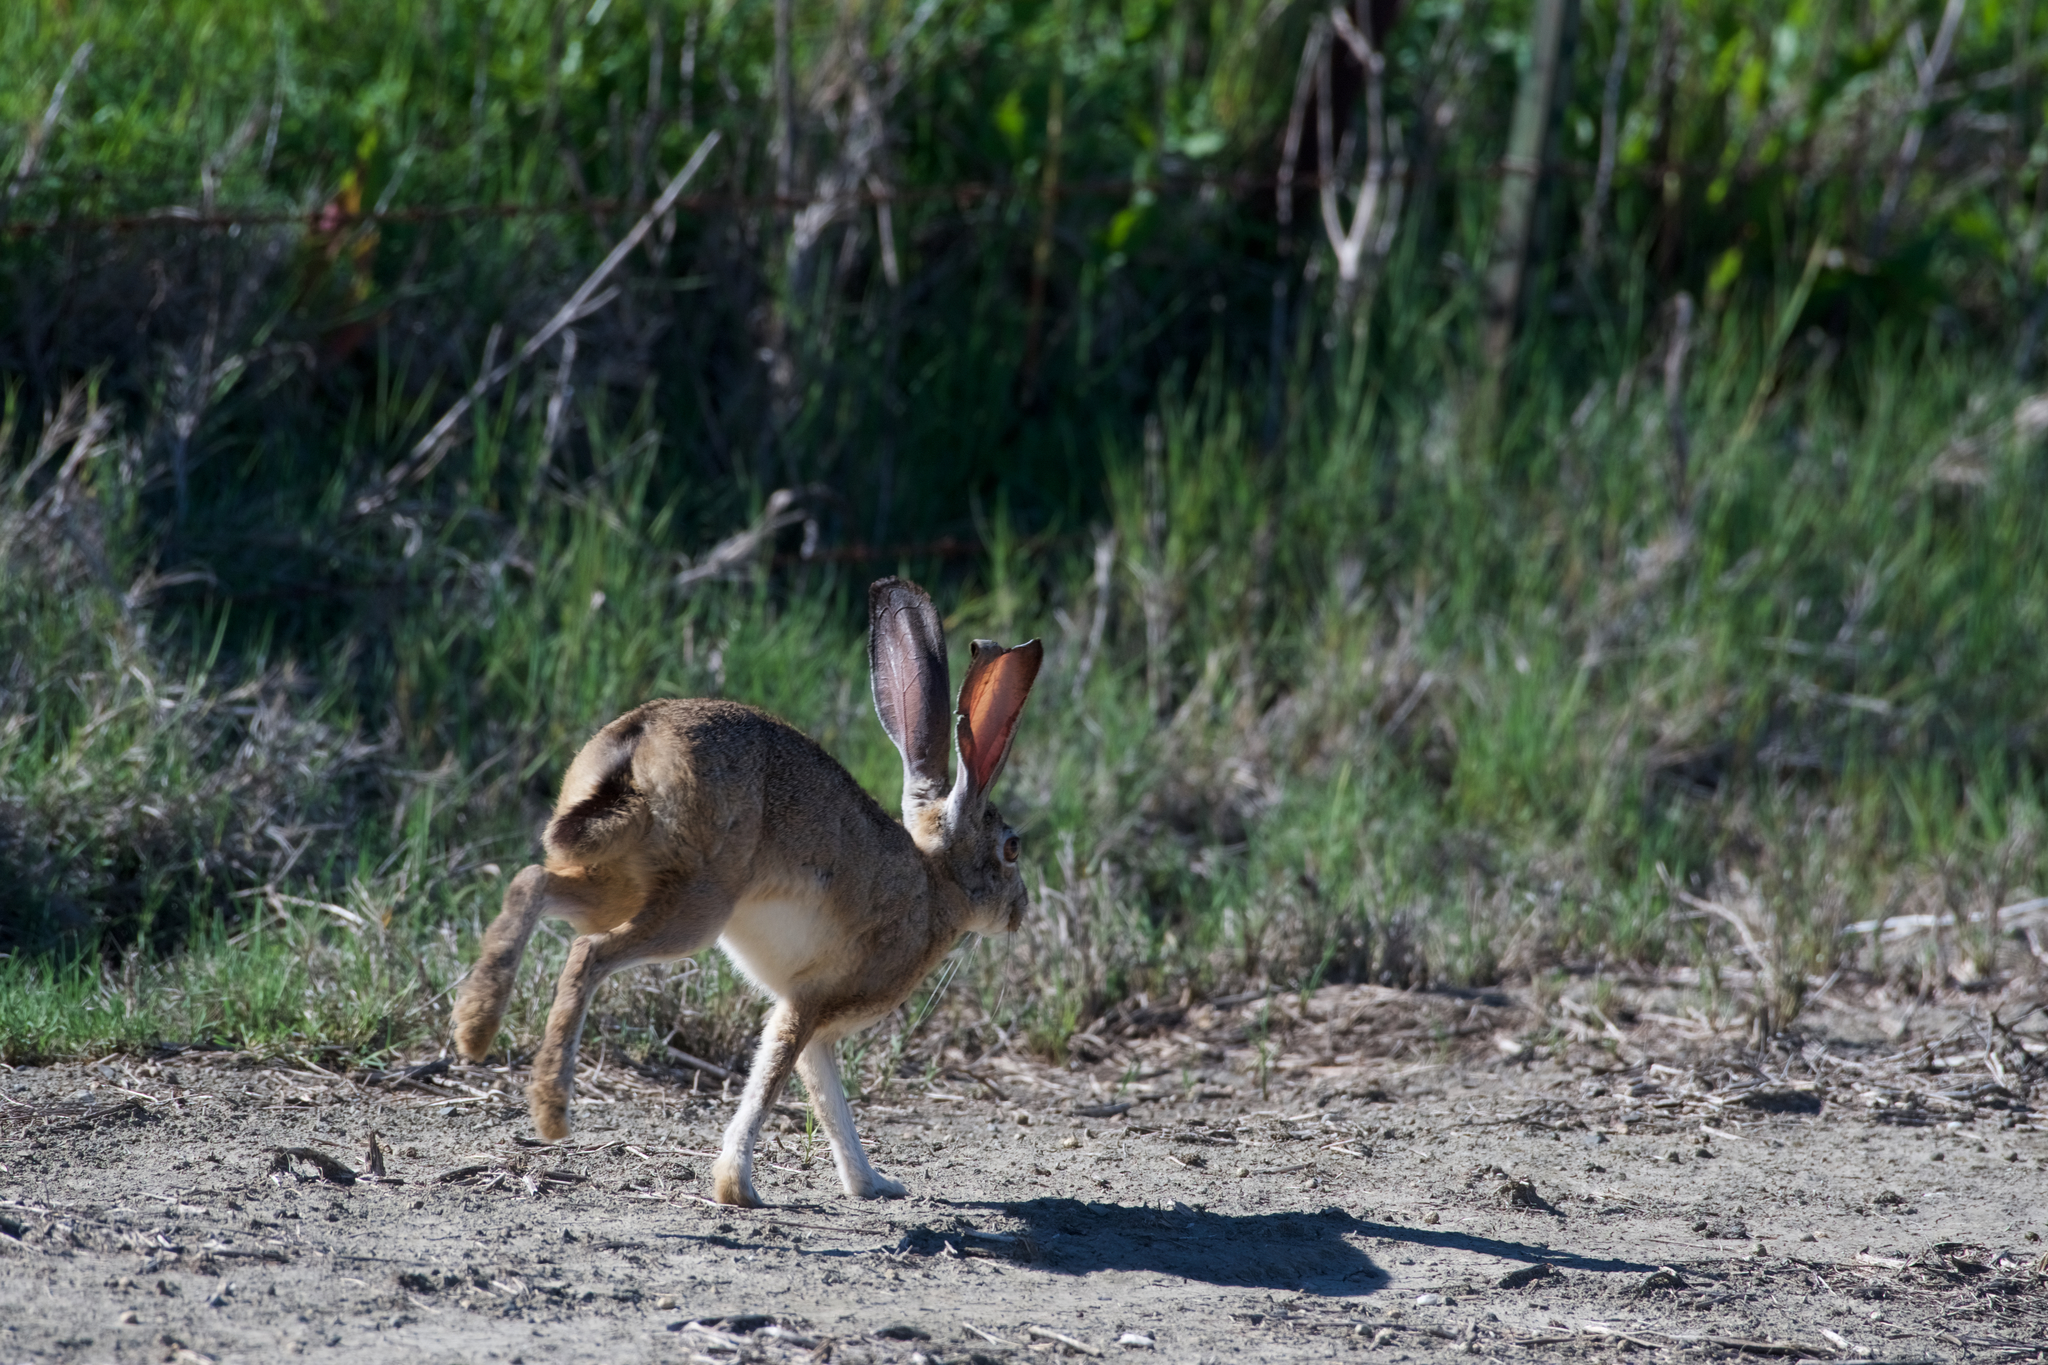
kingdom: Animalia
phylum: Chordata
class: Mammalia
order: Lagomorpha
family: Leporidae
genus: Lepus
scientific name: Lepus californicus
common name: Black-tailed jackrabbit
